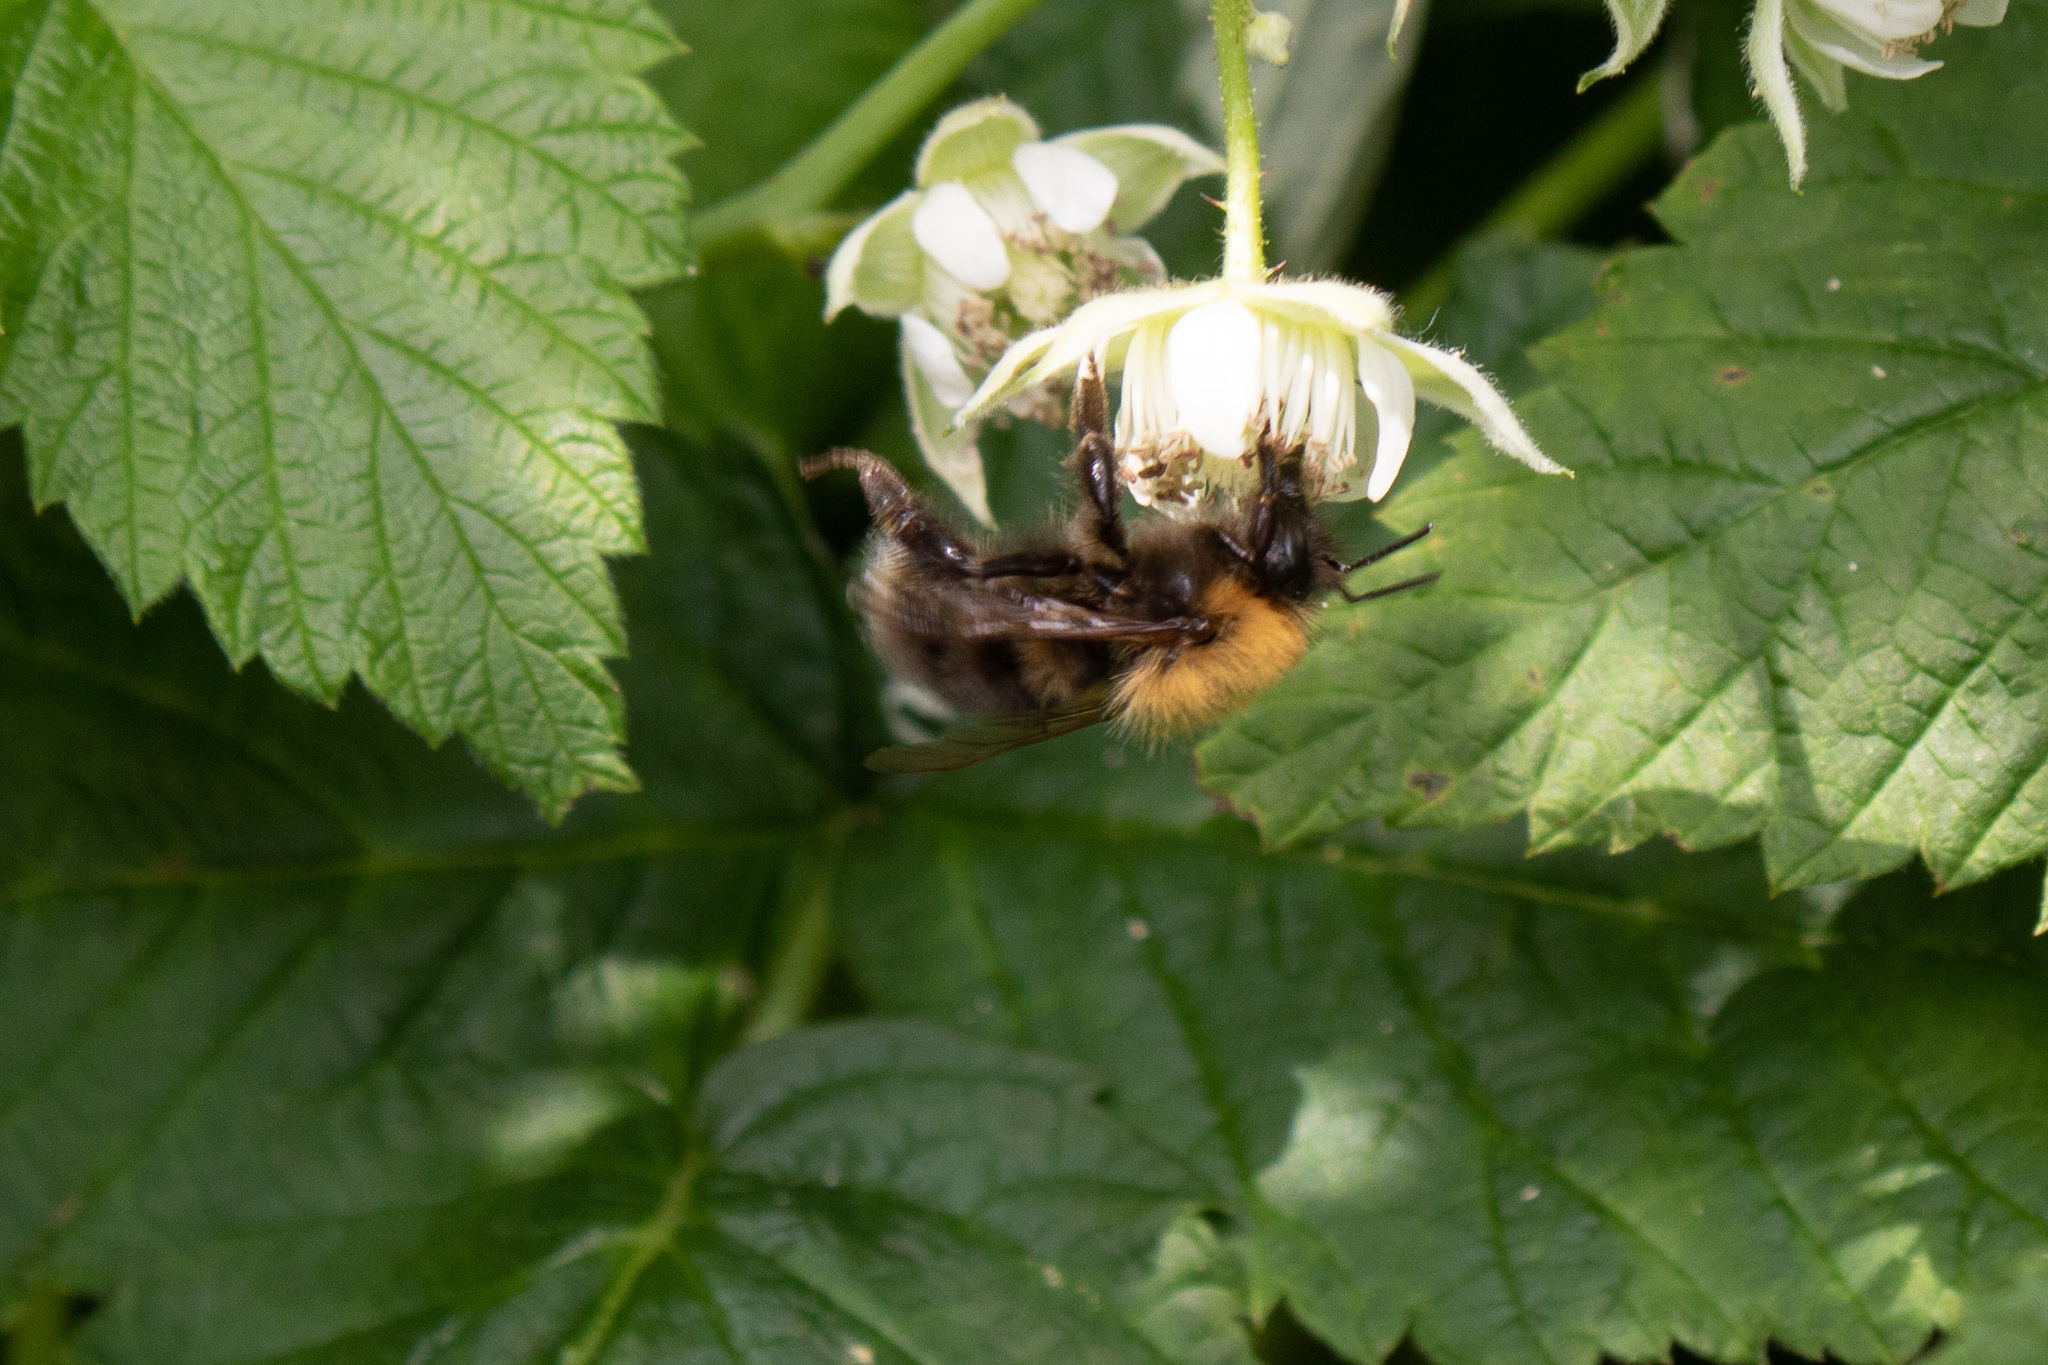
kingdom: Animalia
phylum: Arthropoda
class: Insecta
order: Hymenoptera
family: Apidae
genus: Bombus
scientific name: Bombus hypnorum
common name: New garden bumblebee
